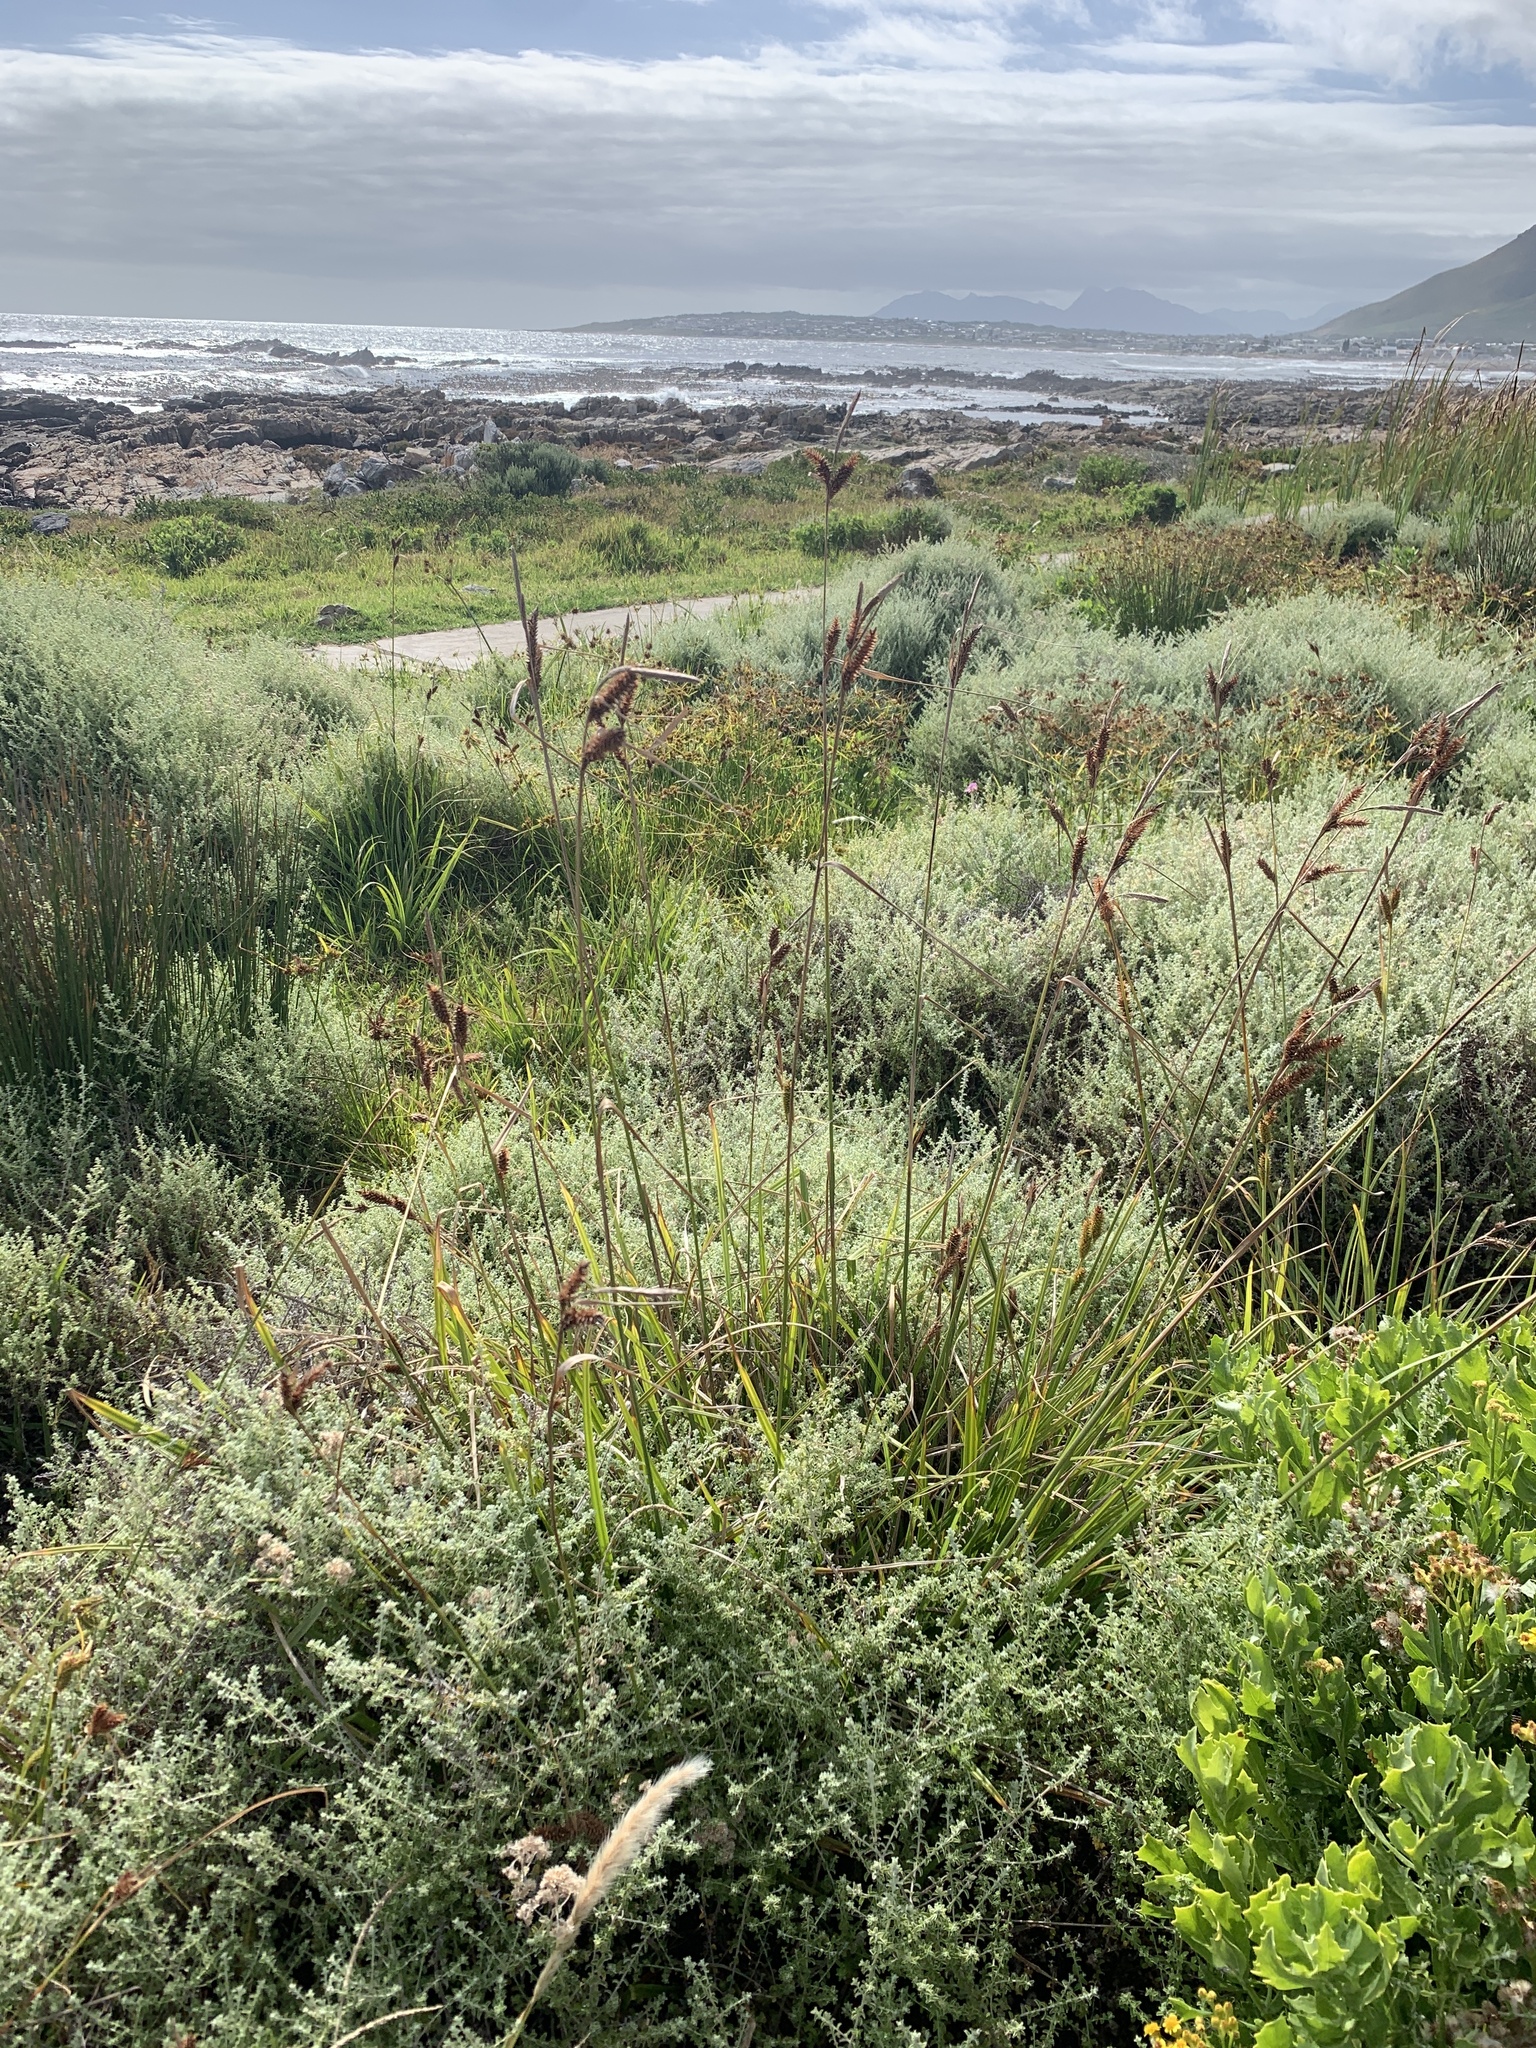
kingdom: Plantae
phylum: Tracheophyta
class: Liliopsida
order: Poales
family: Cyperaceae
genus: Carex
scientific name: Carex clavata
